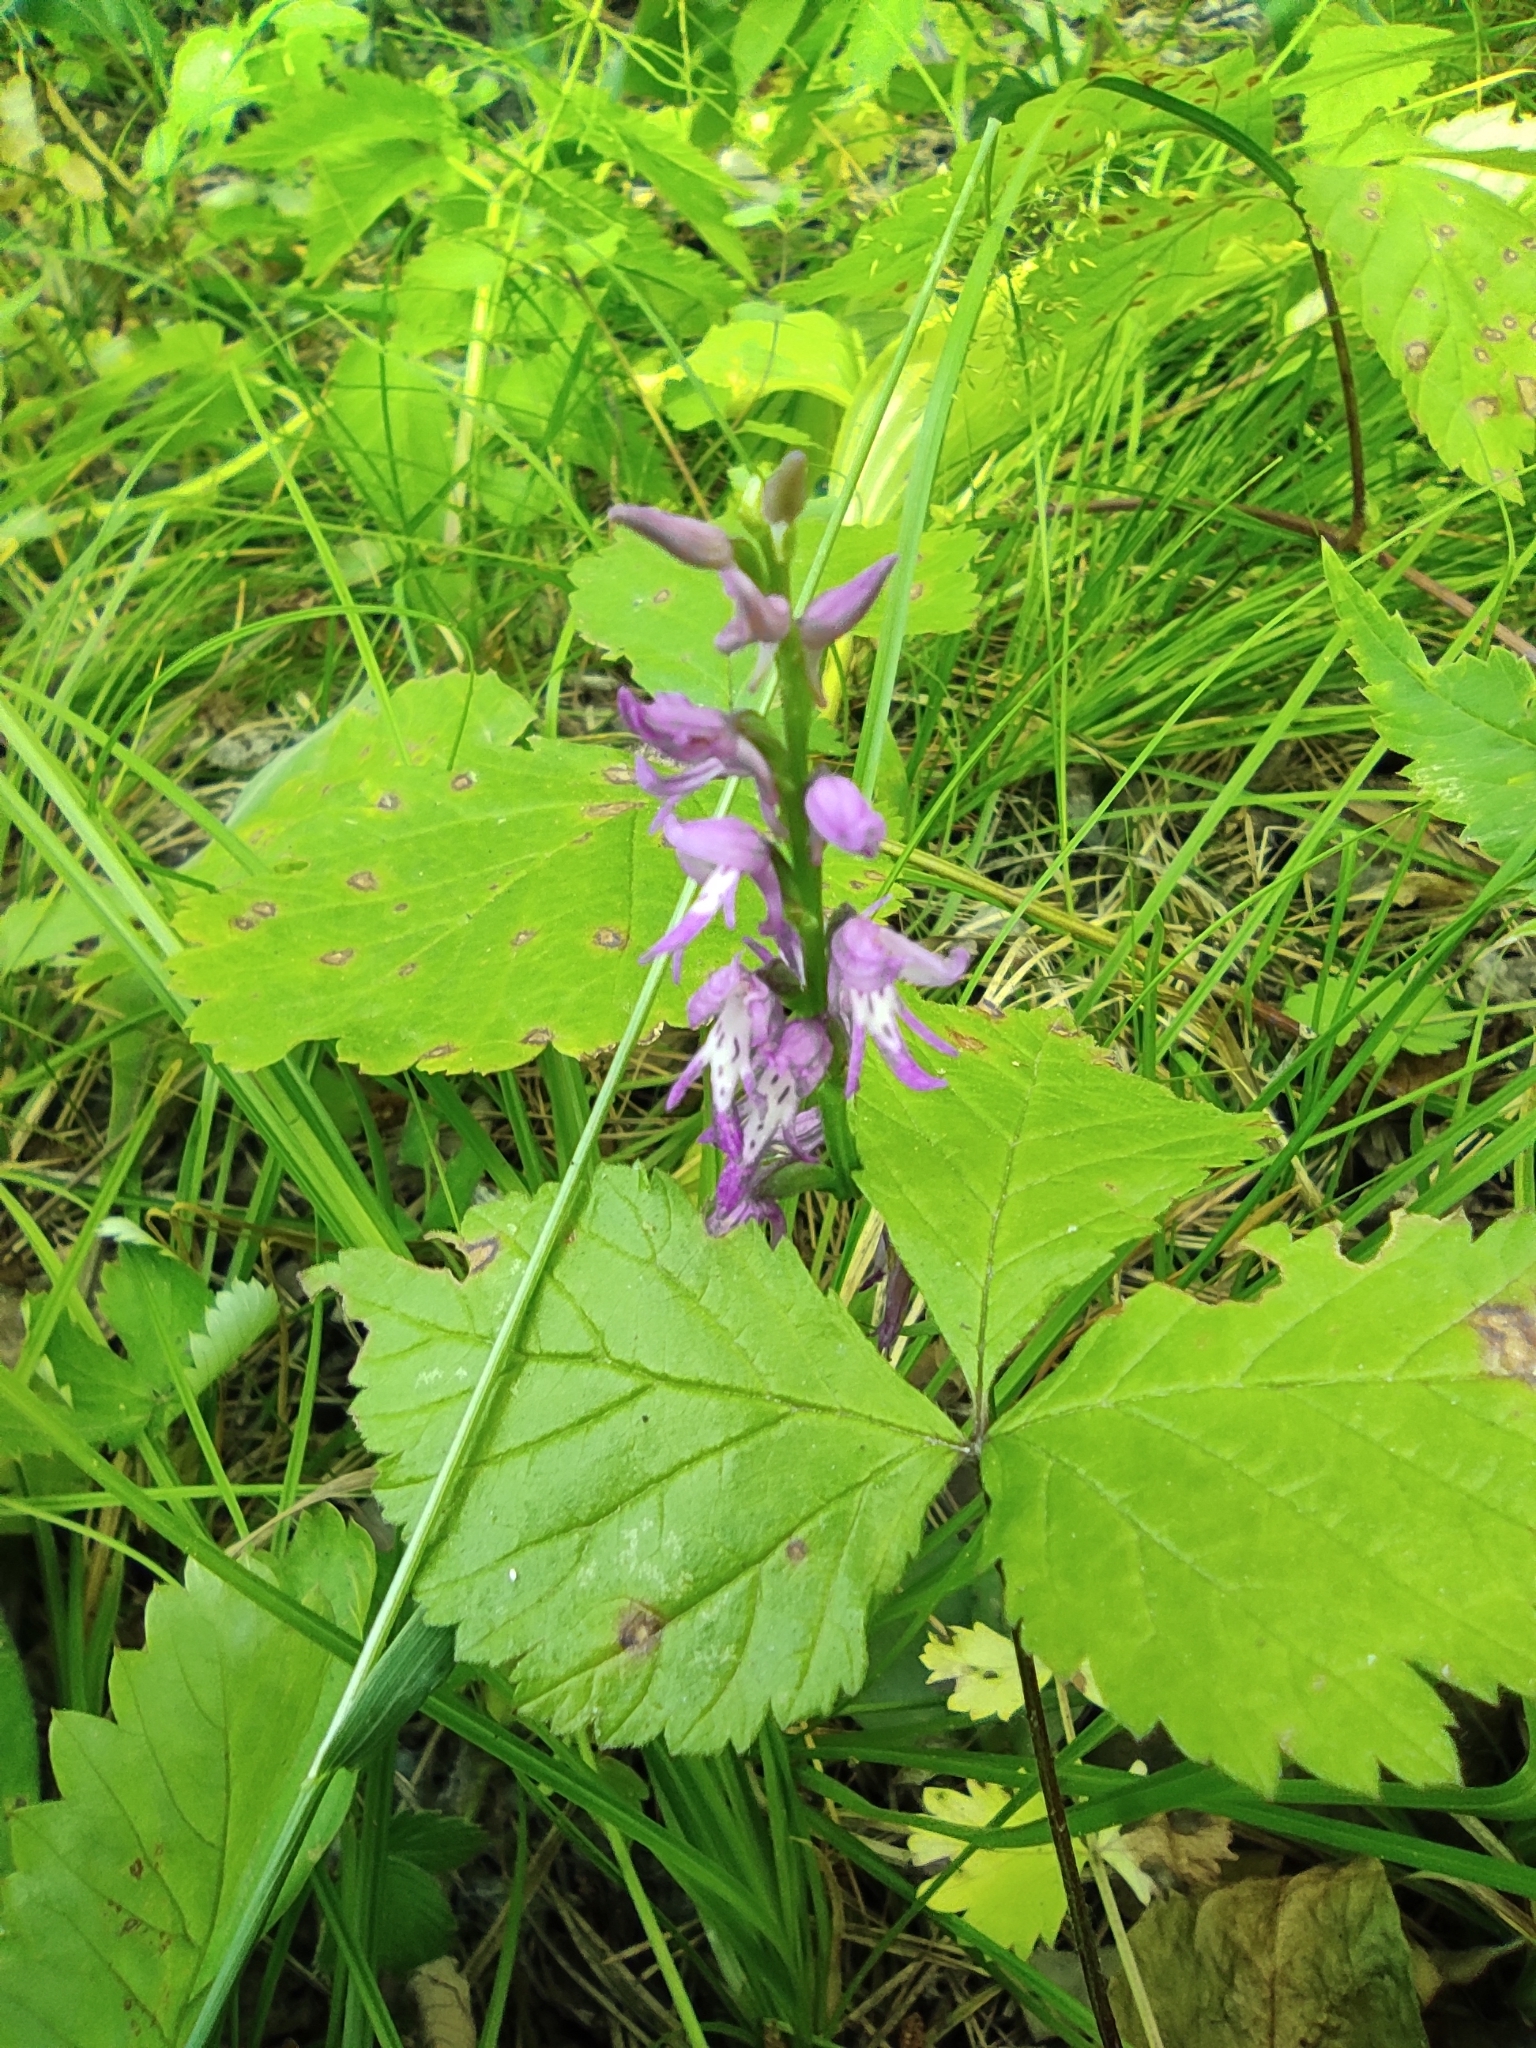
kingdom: Plantae
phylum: Tracheophyta
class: Liliopsida
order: Asparagales
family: Orchidaceae
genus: Hemipilia
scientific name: Hemipilia cucullata
